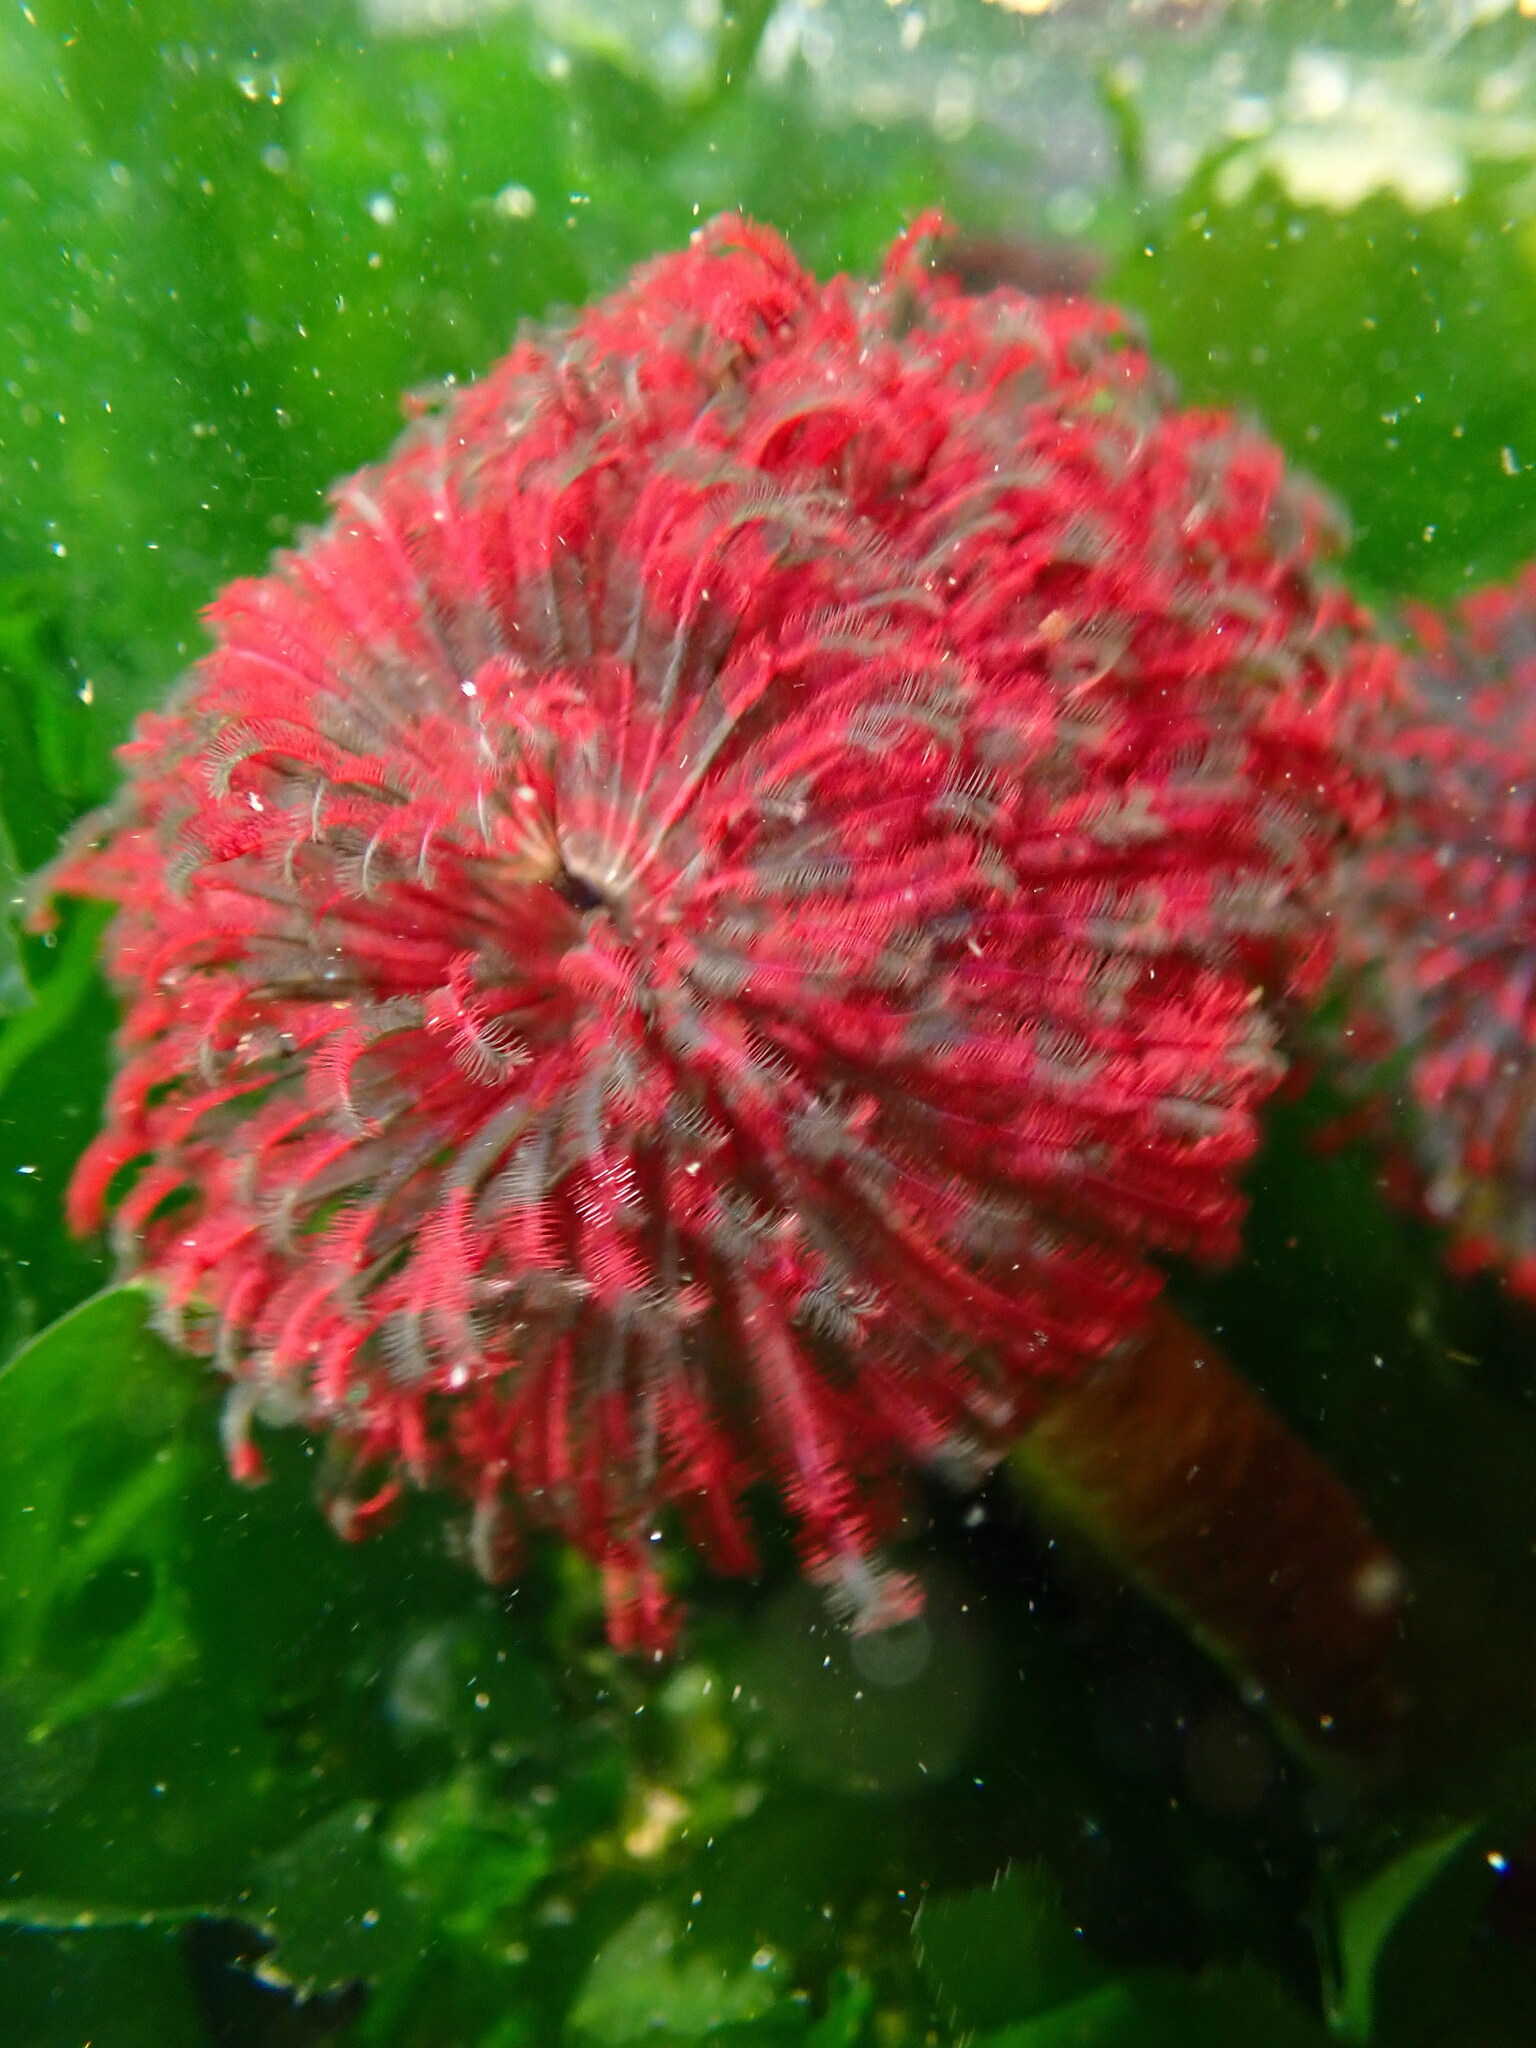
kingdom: Animalia
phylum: Annelida
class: Polychaeta
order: Sabellida
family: Sabellidae
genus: Eudistylia
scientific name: Eudistylia vancouveri
